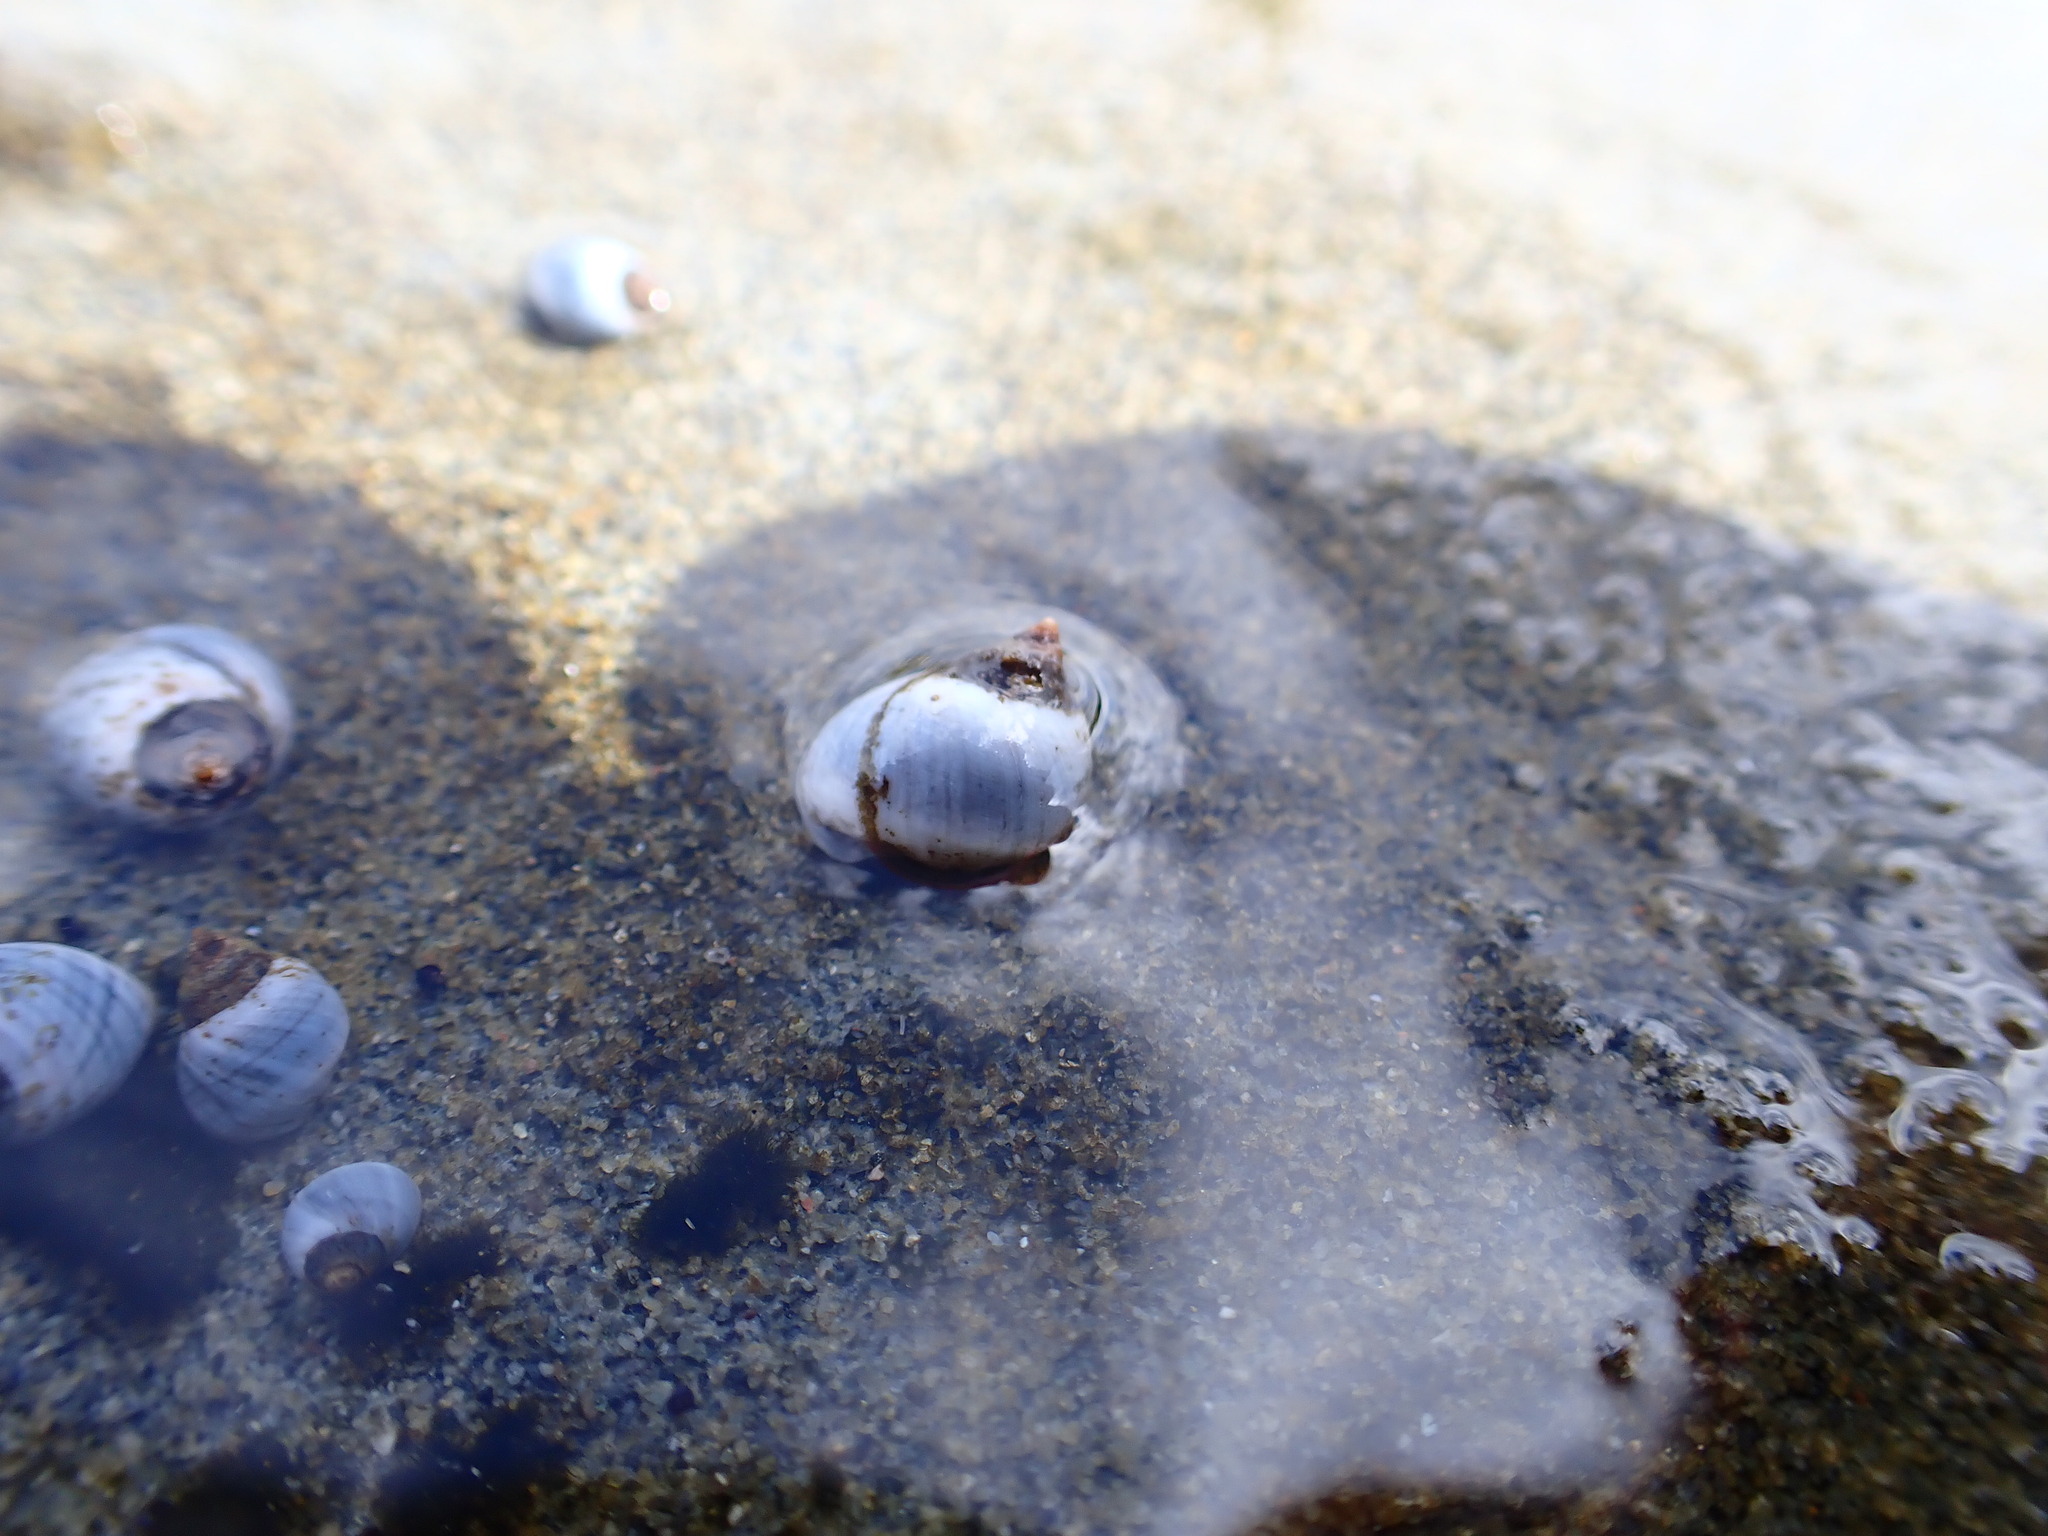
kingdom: Animalia
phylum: Mollusca
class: Gastropoda
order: Littorinimorpha
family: Littorinidae
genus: Austrolittorina
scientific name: Austrolittorina unifasciata
